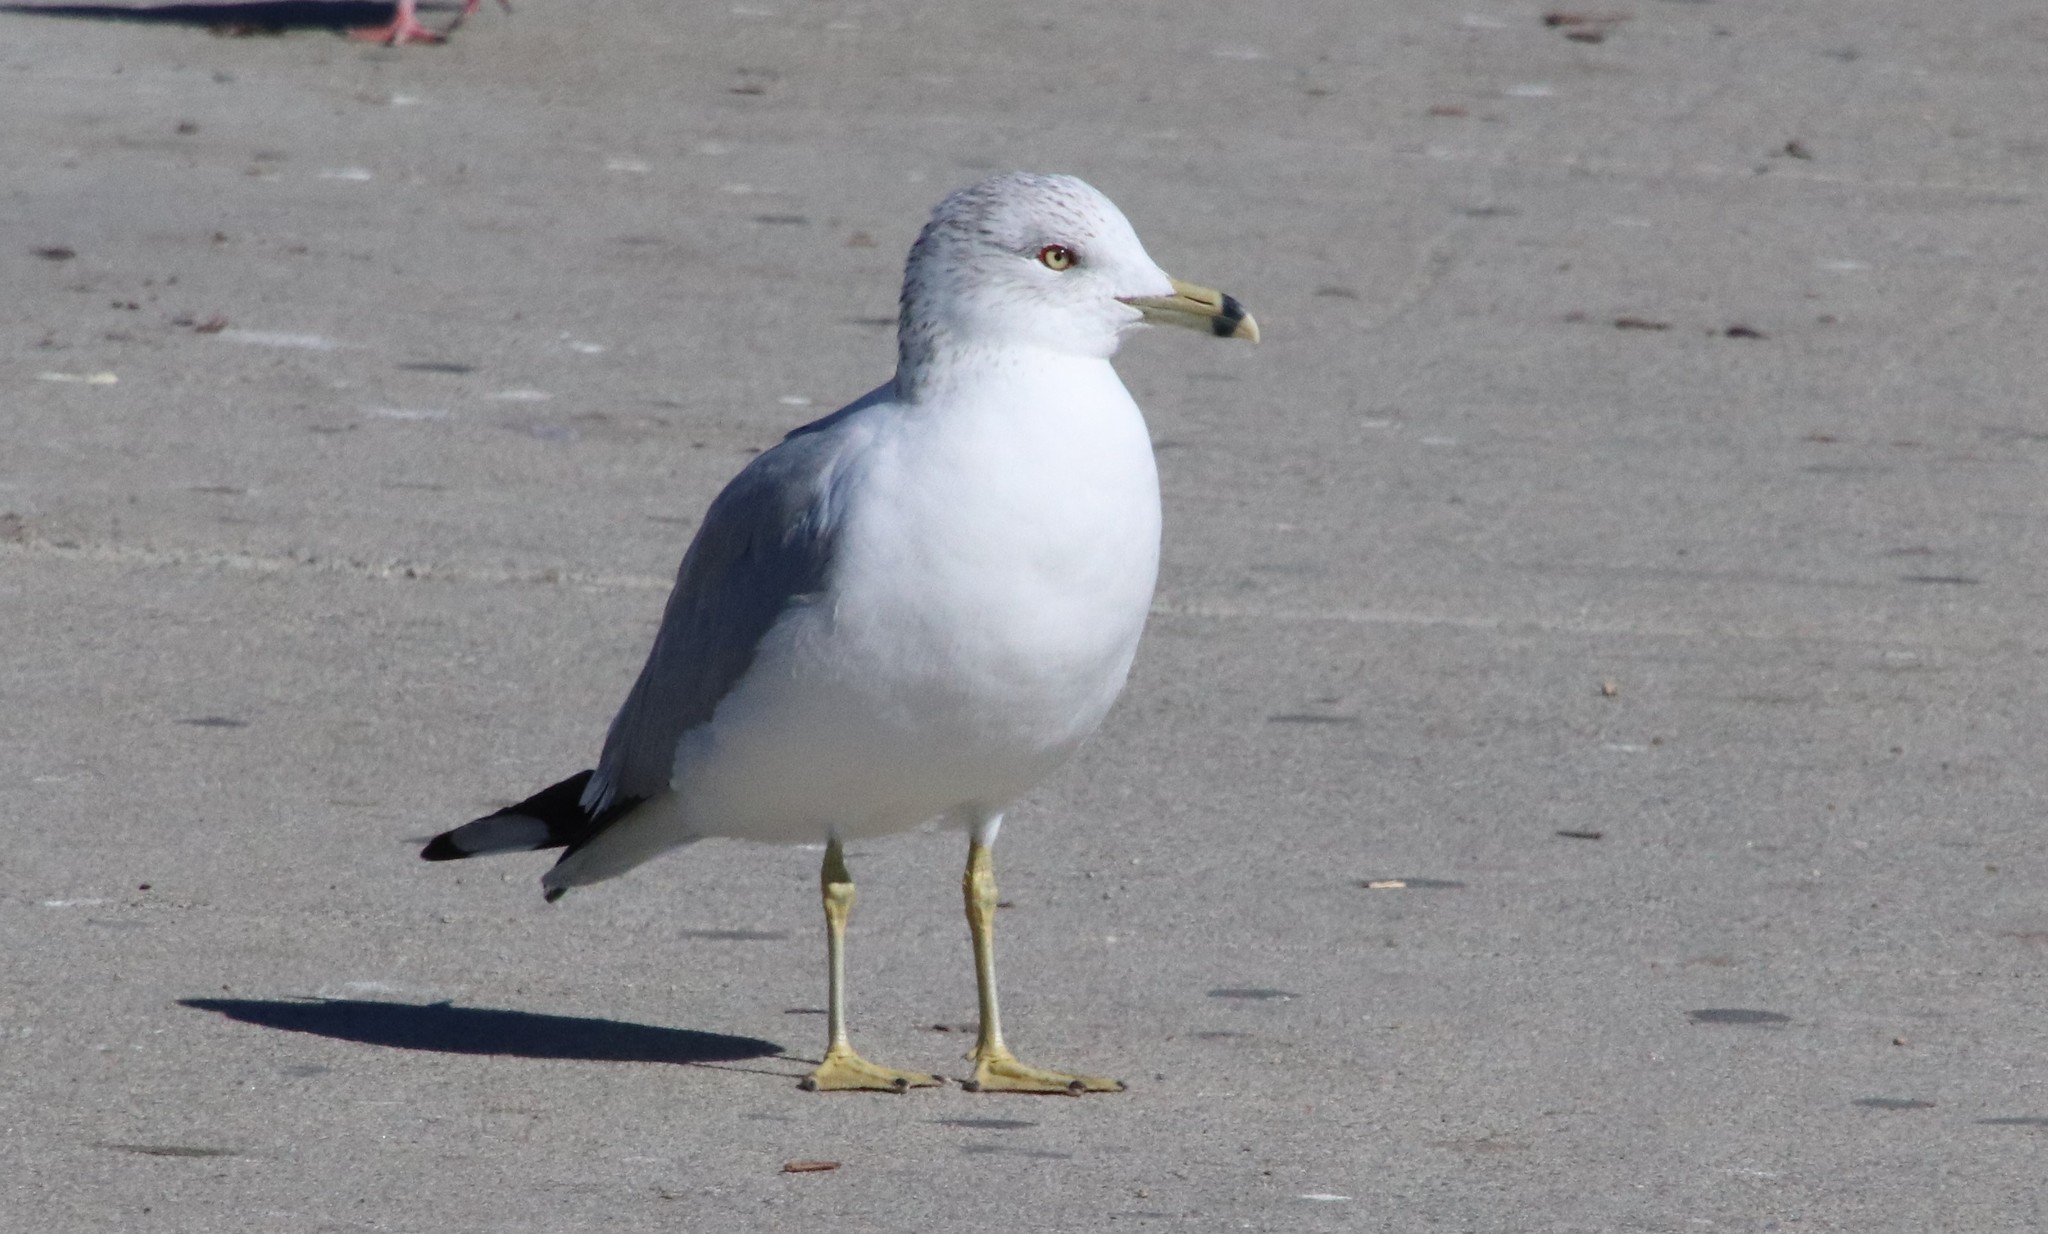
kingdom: Animalia
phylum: Chordata
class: Aves
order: Charadriiformes
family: Laridae
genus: Larus
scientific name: Larus delawarensis
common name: Ring-billed gull
